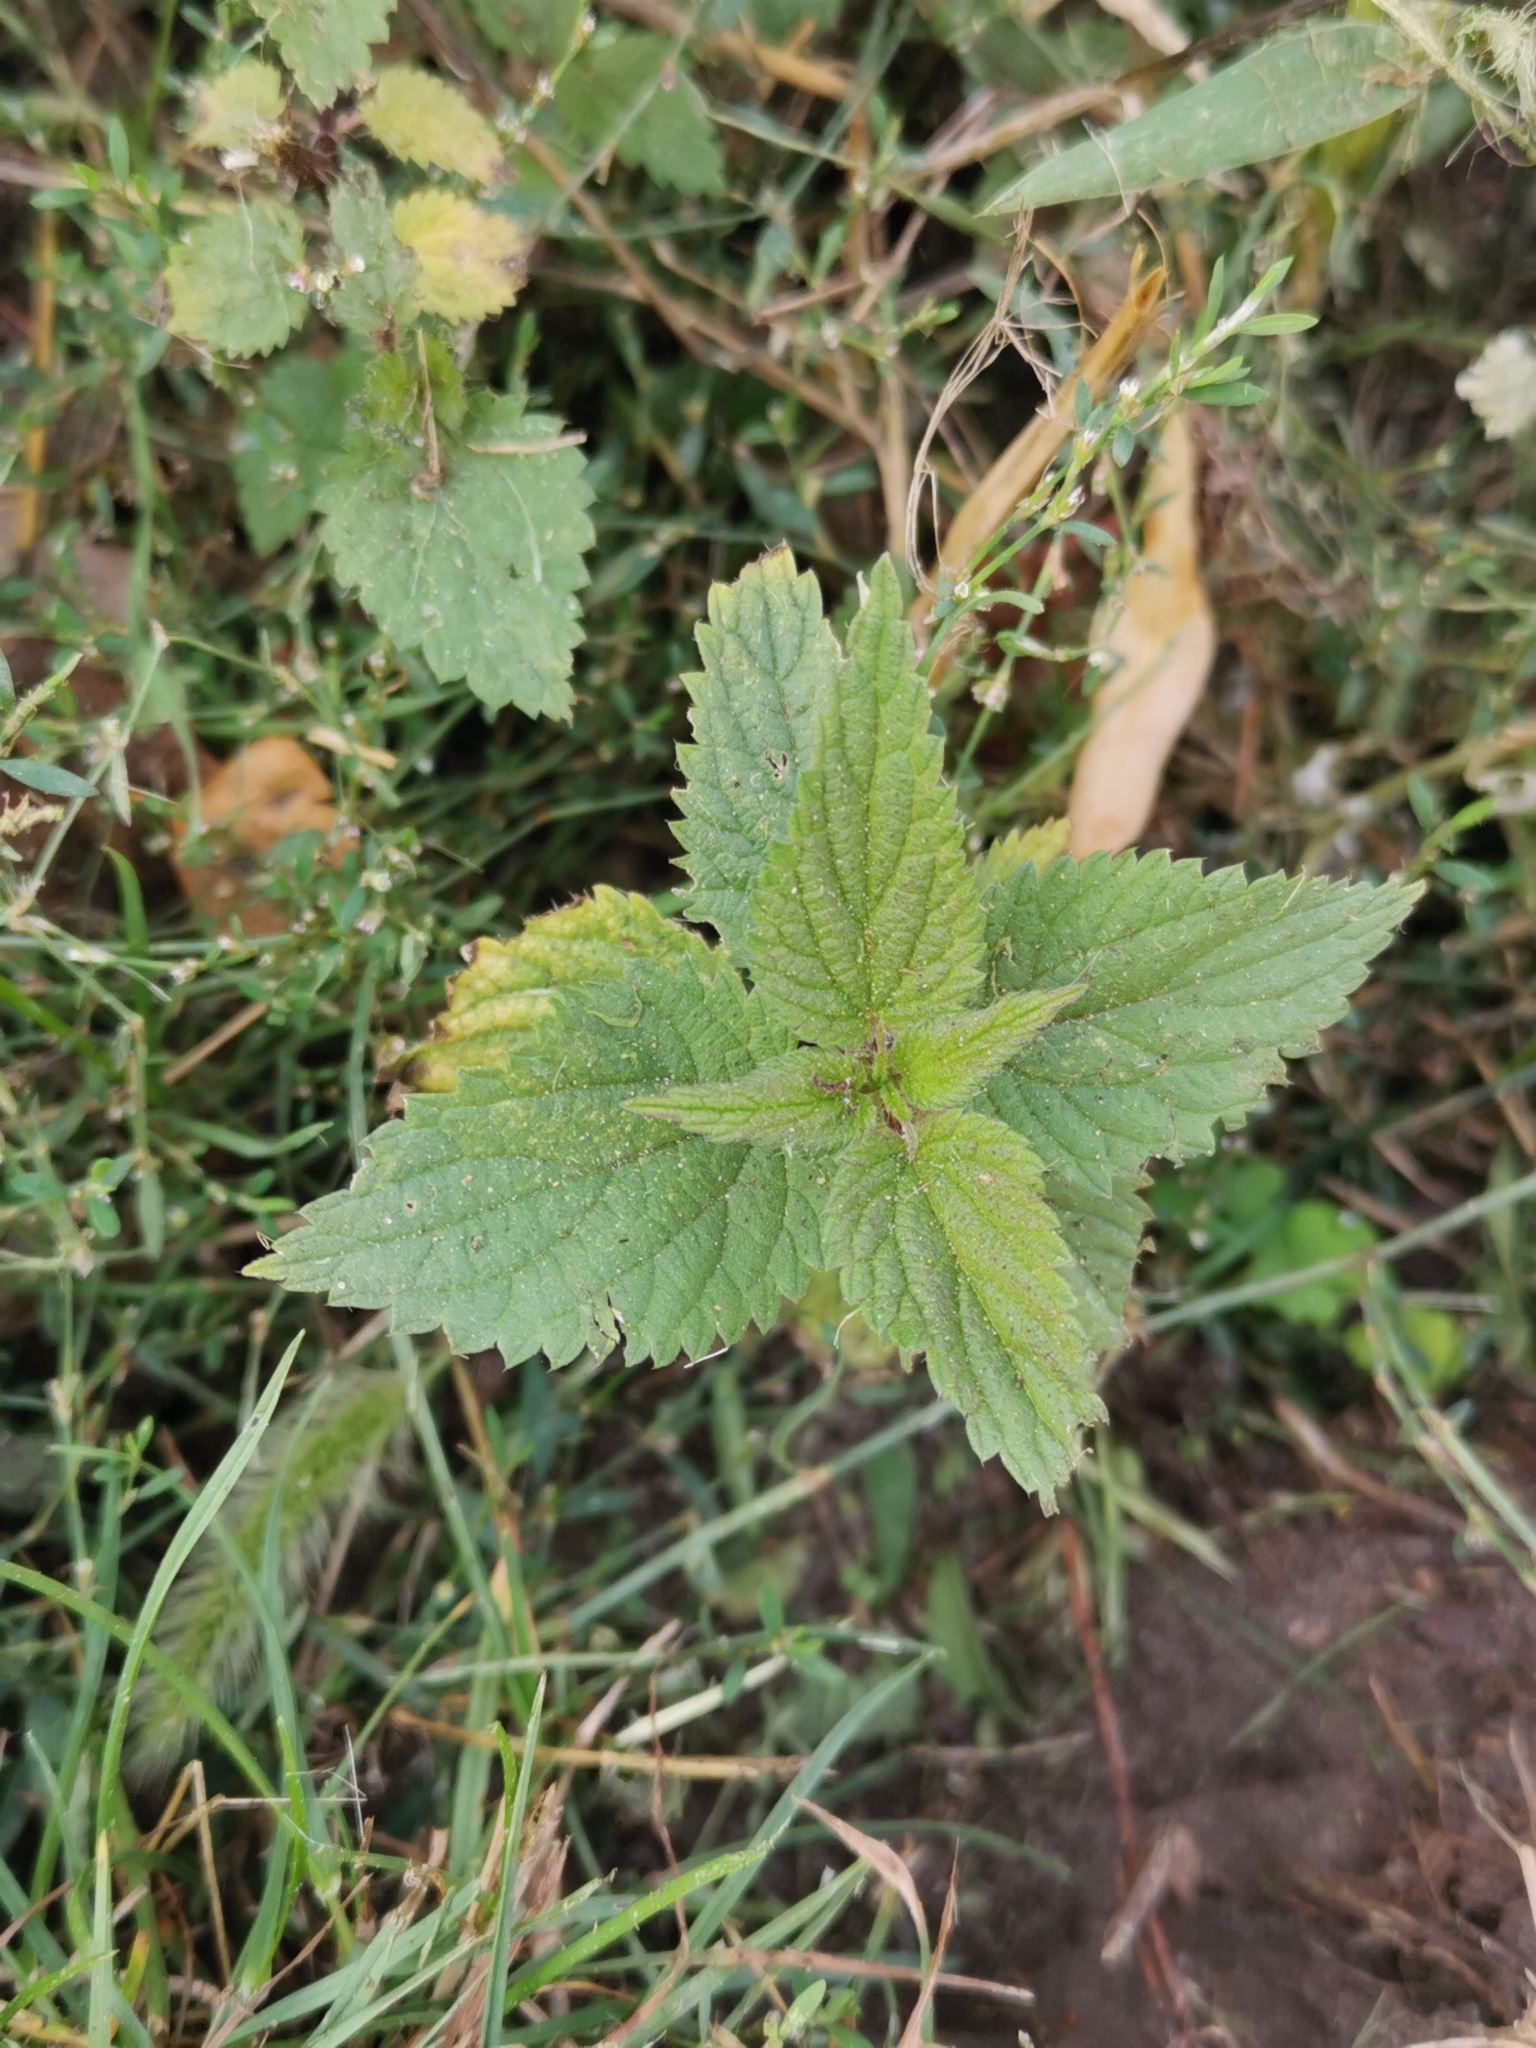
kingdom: Plantae
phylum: Tracheophyta
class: Magnoliopsida
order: Rosales
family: Urticaceae
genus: Urtica
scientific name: Urtica dioica
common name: Common nettle
